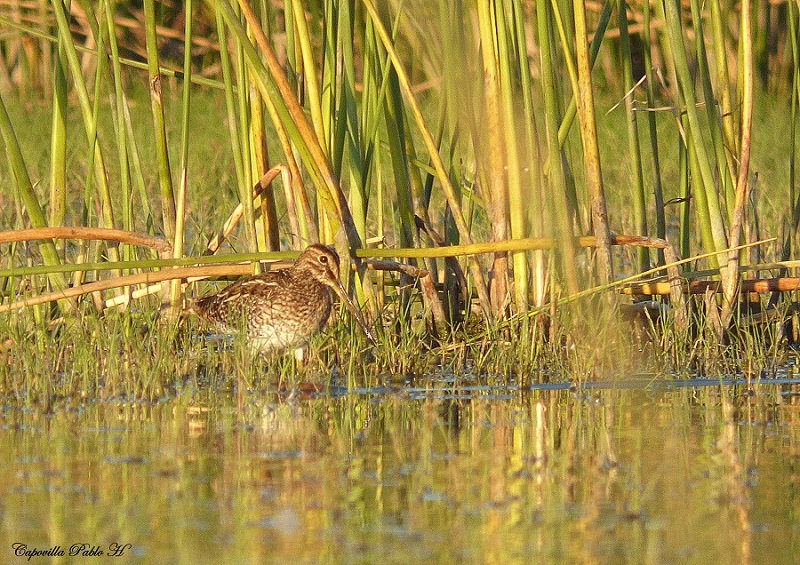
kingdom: Animalia
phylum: Chordata
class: Aves
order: Charadriiformes
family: Scolopacidae
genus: Gallinago
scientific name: Gallinago paraguaiae
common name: South american snipe
